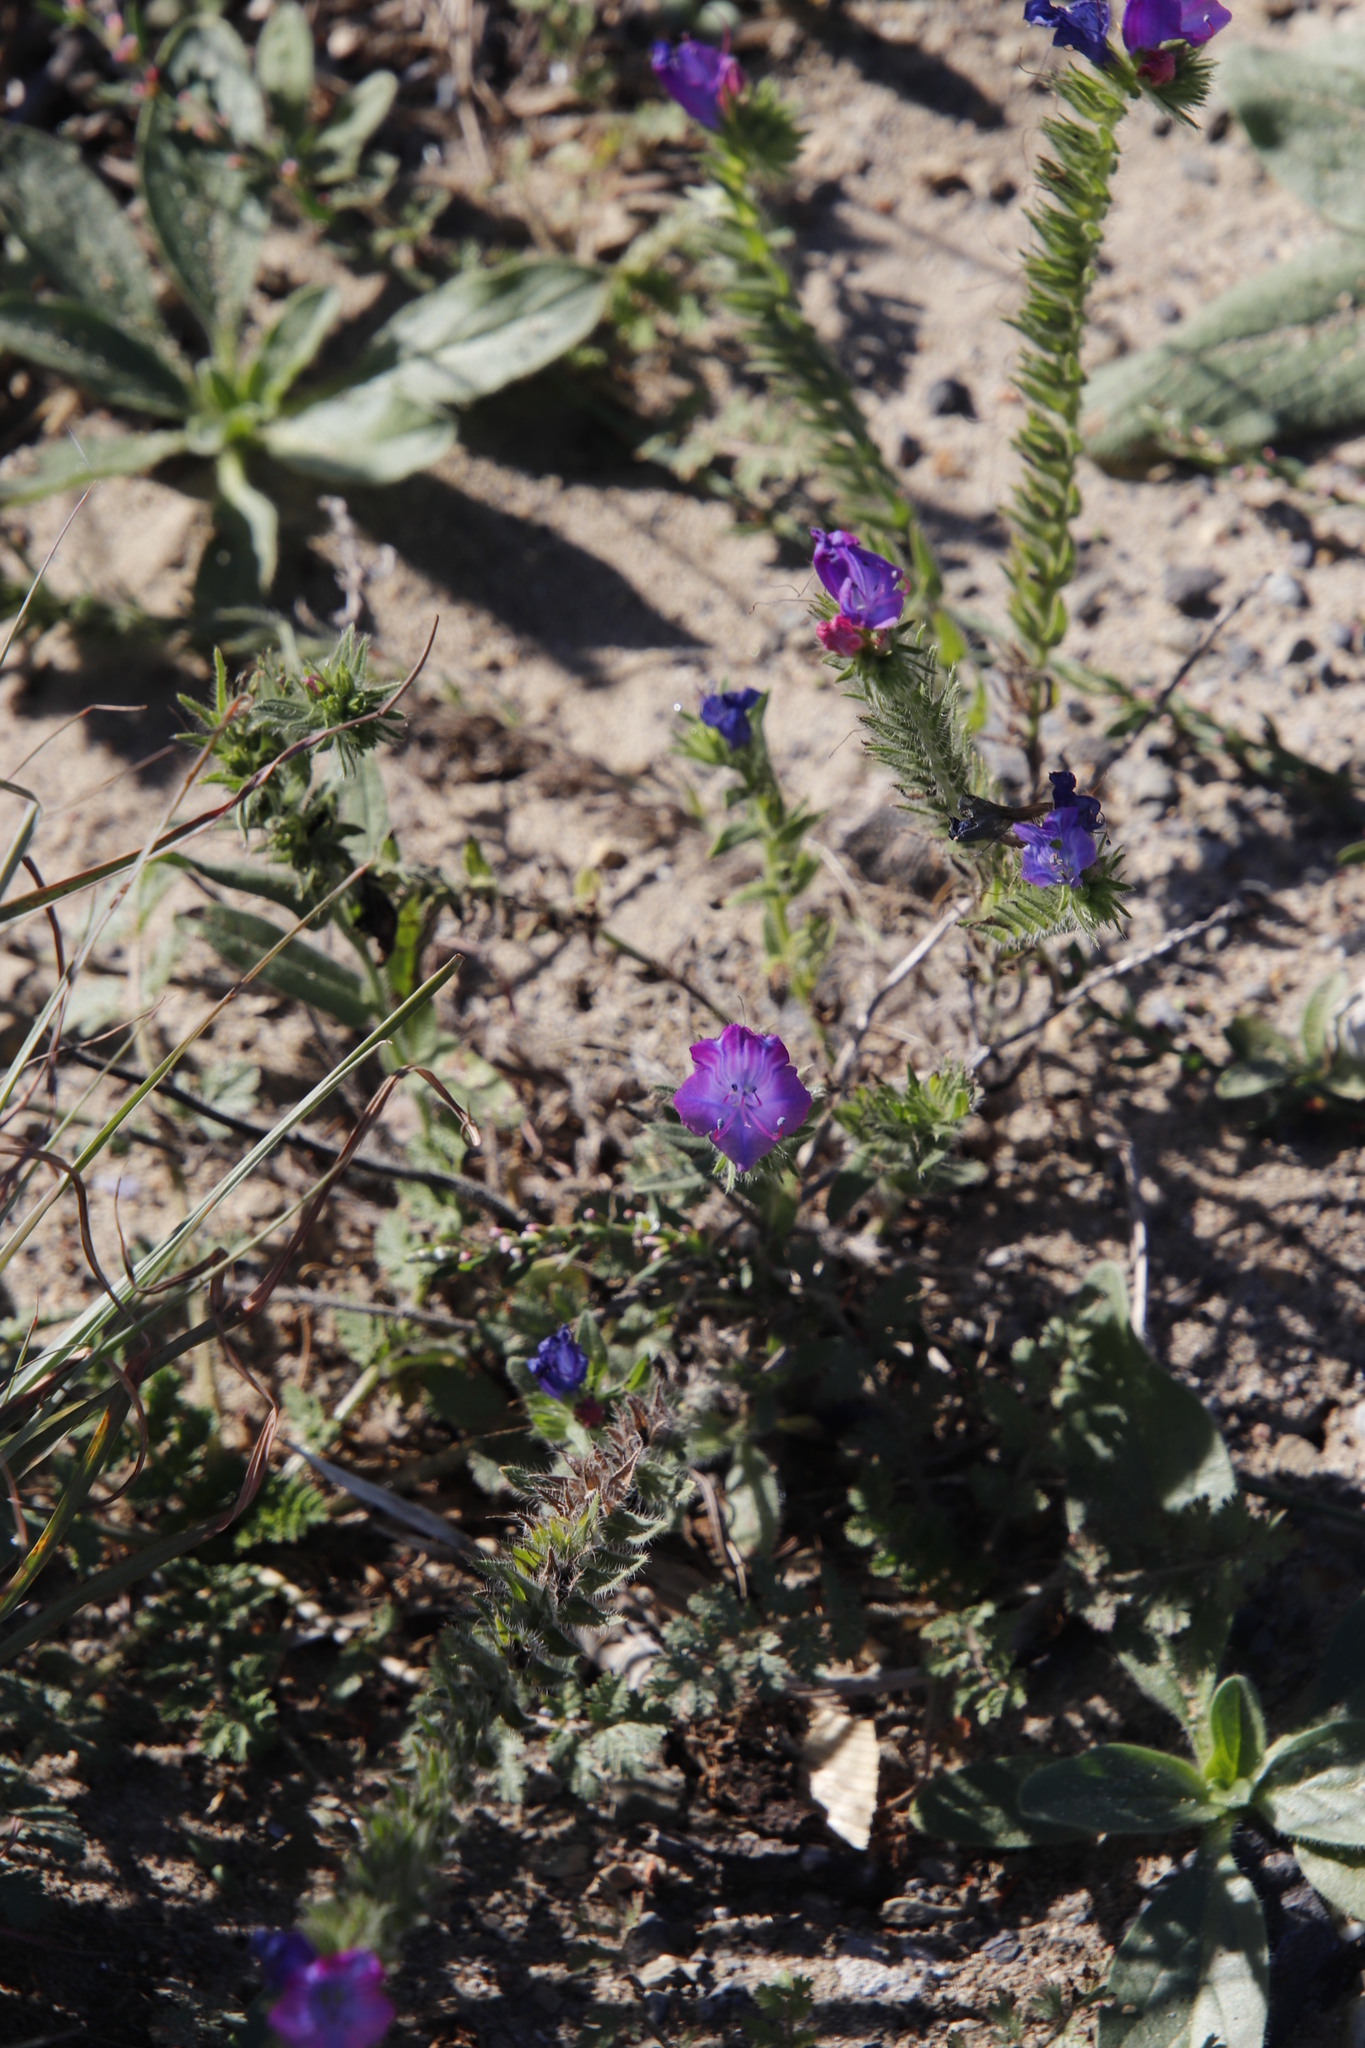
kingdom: Plantae
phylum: Tracheophyta
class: Magnoliopsida
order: Boraginales
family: Boraginaceae
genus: Echium
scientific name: Echium plantagineum
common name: Purple viper's-bugloss
